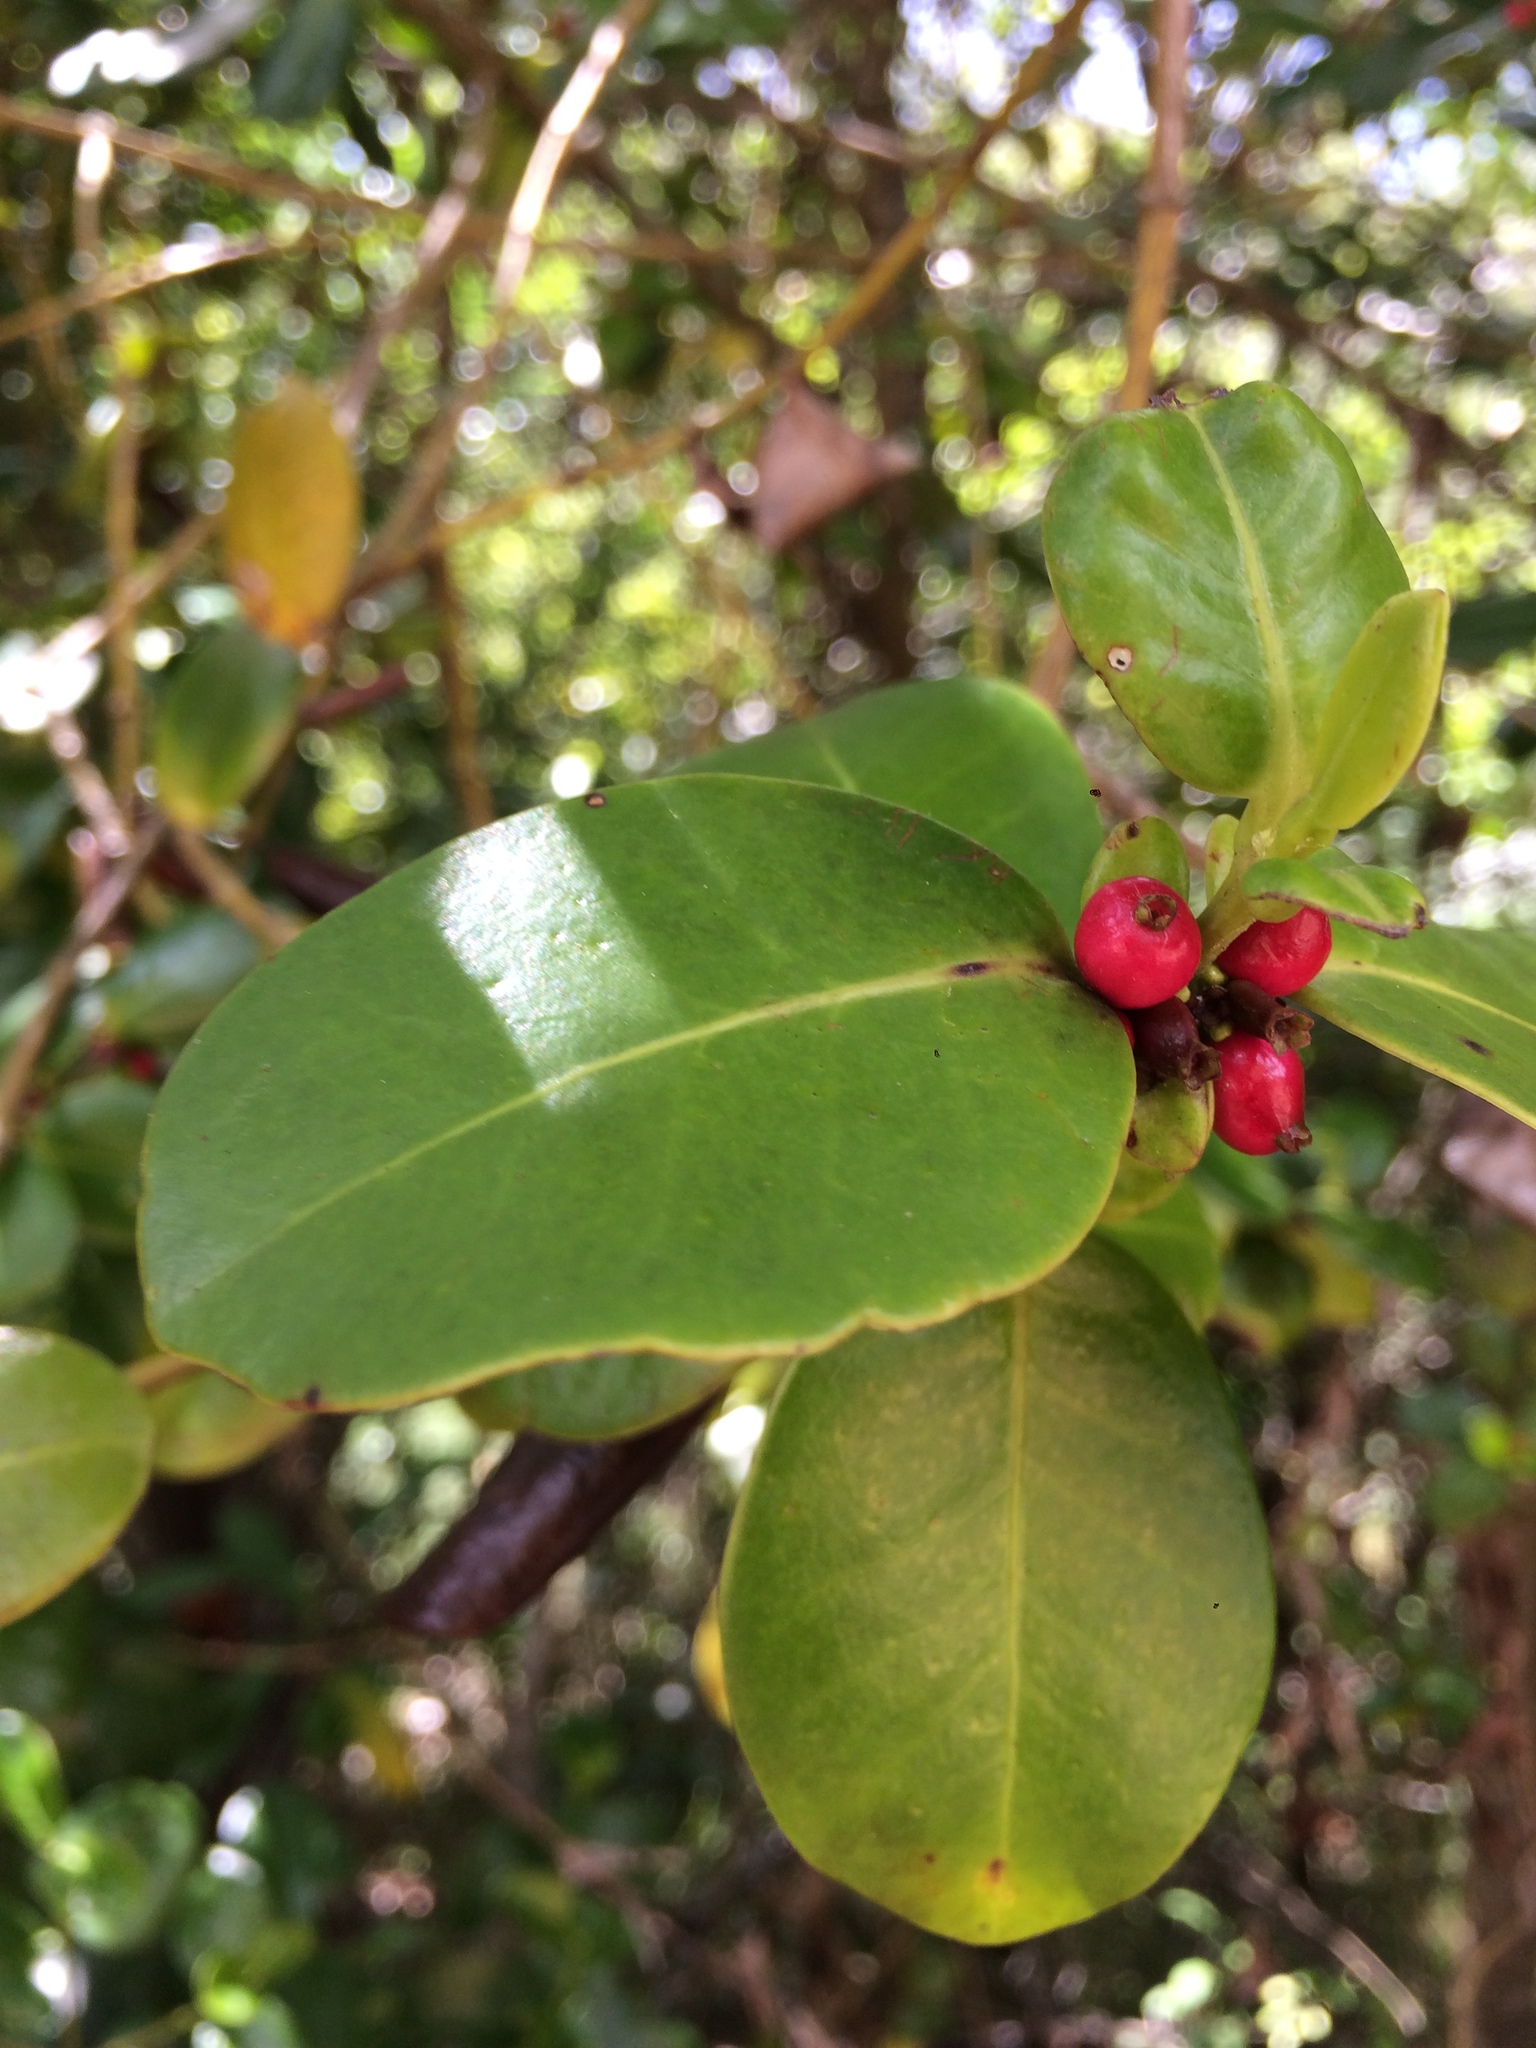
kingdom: Plantae
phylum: Tracheophyta
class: Magnoliopsida
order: Gentianales
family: Rubiaceae
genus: Salzmannia
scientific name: Salzmannia nitida
